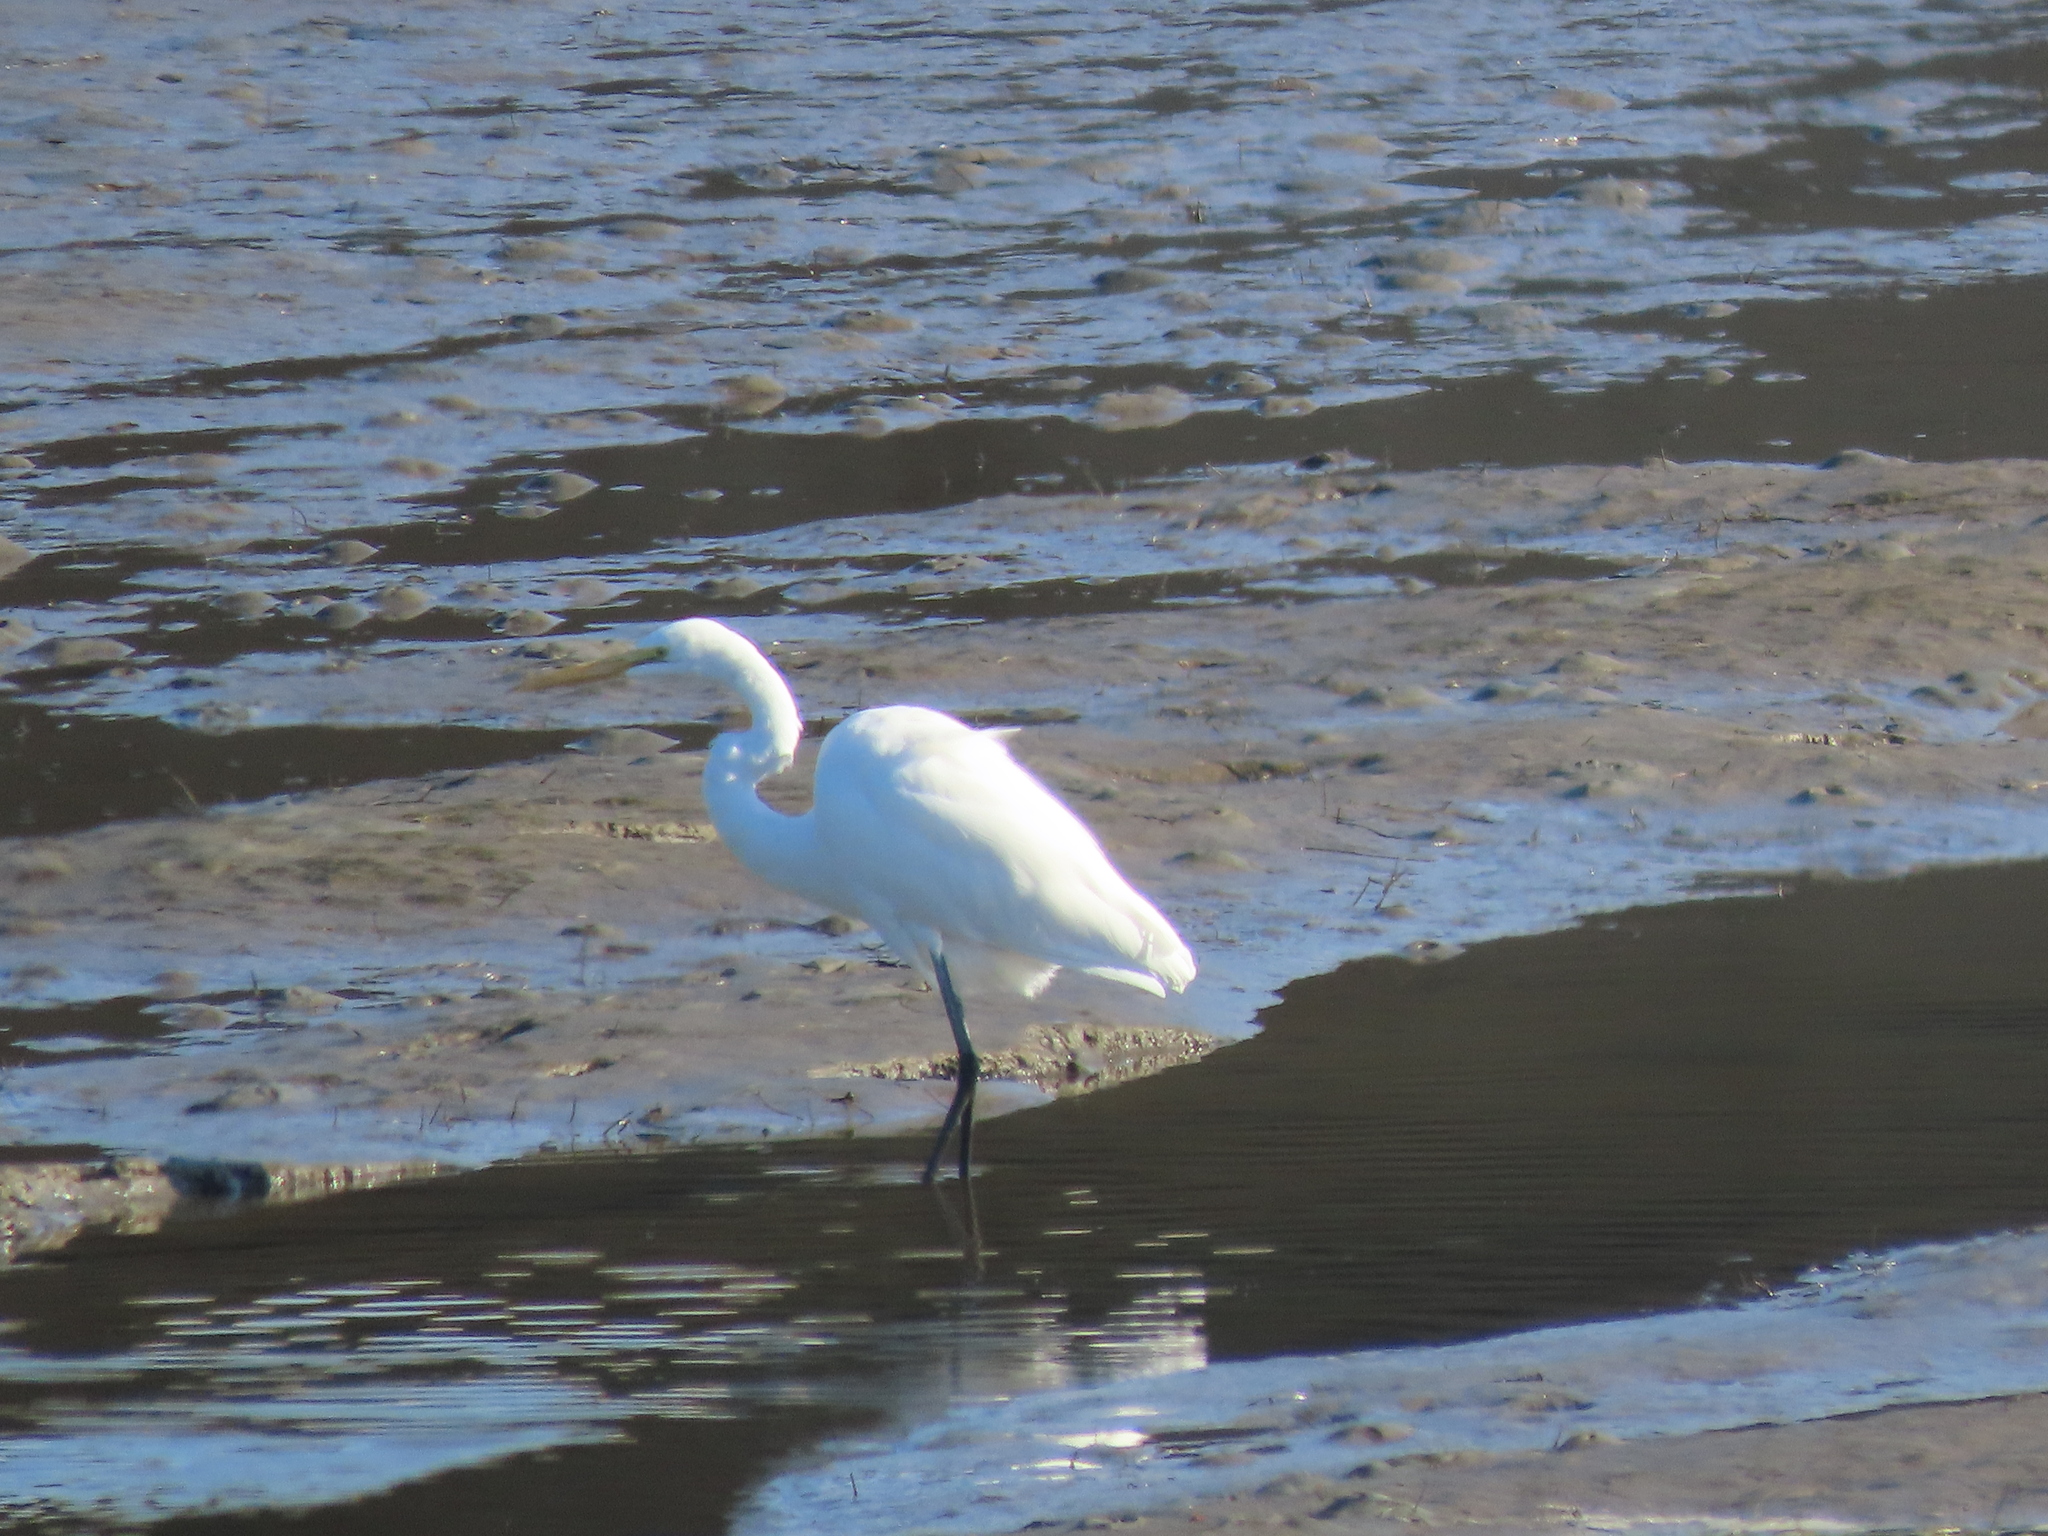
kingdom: Animalia
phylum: Chordata
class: Aves
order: Pelecaniformes
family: Ardeidae
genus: Ardea
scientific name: Ardea alba
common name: Great egret
